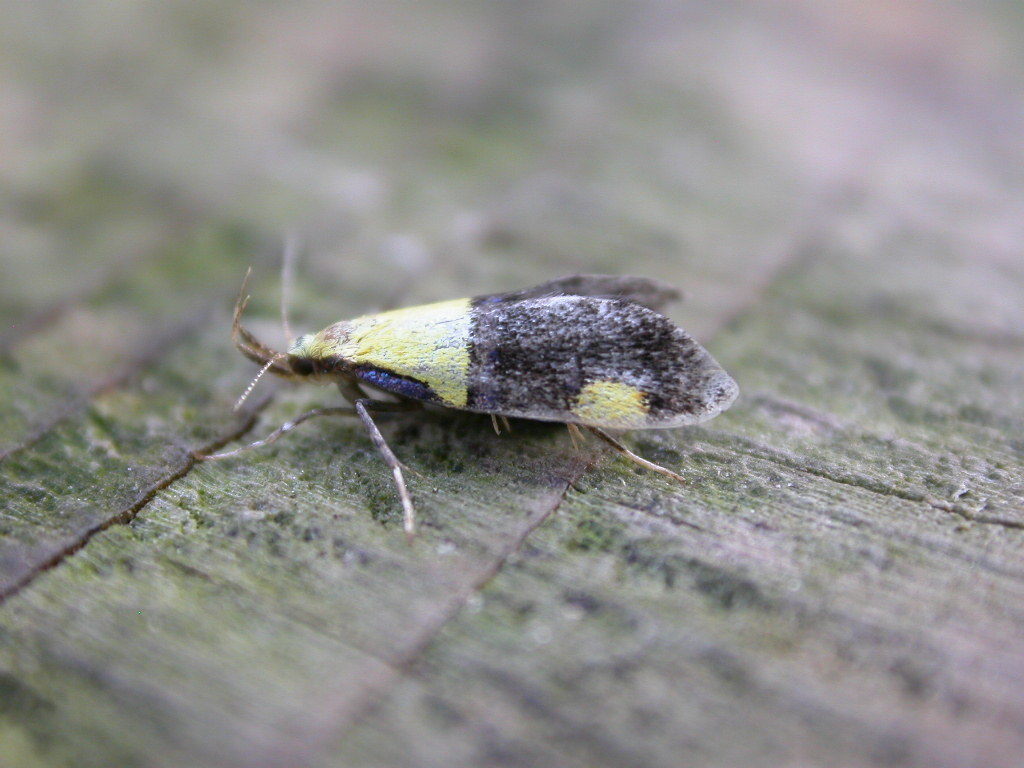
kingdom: Animalia
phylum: Arthropoda
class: Insecta
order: Lepidoptera
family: Oecophoridae
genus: Oecophora
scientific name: Oecophora bractella
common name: Gold-base tubic
